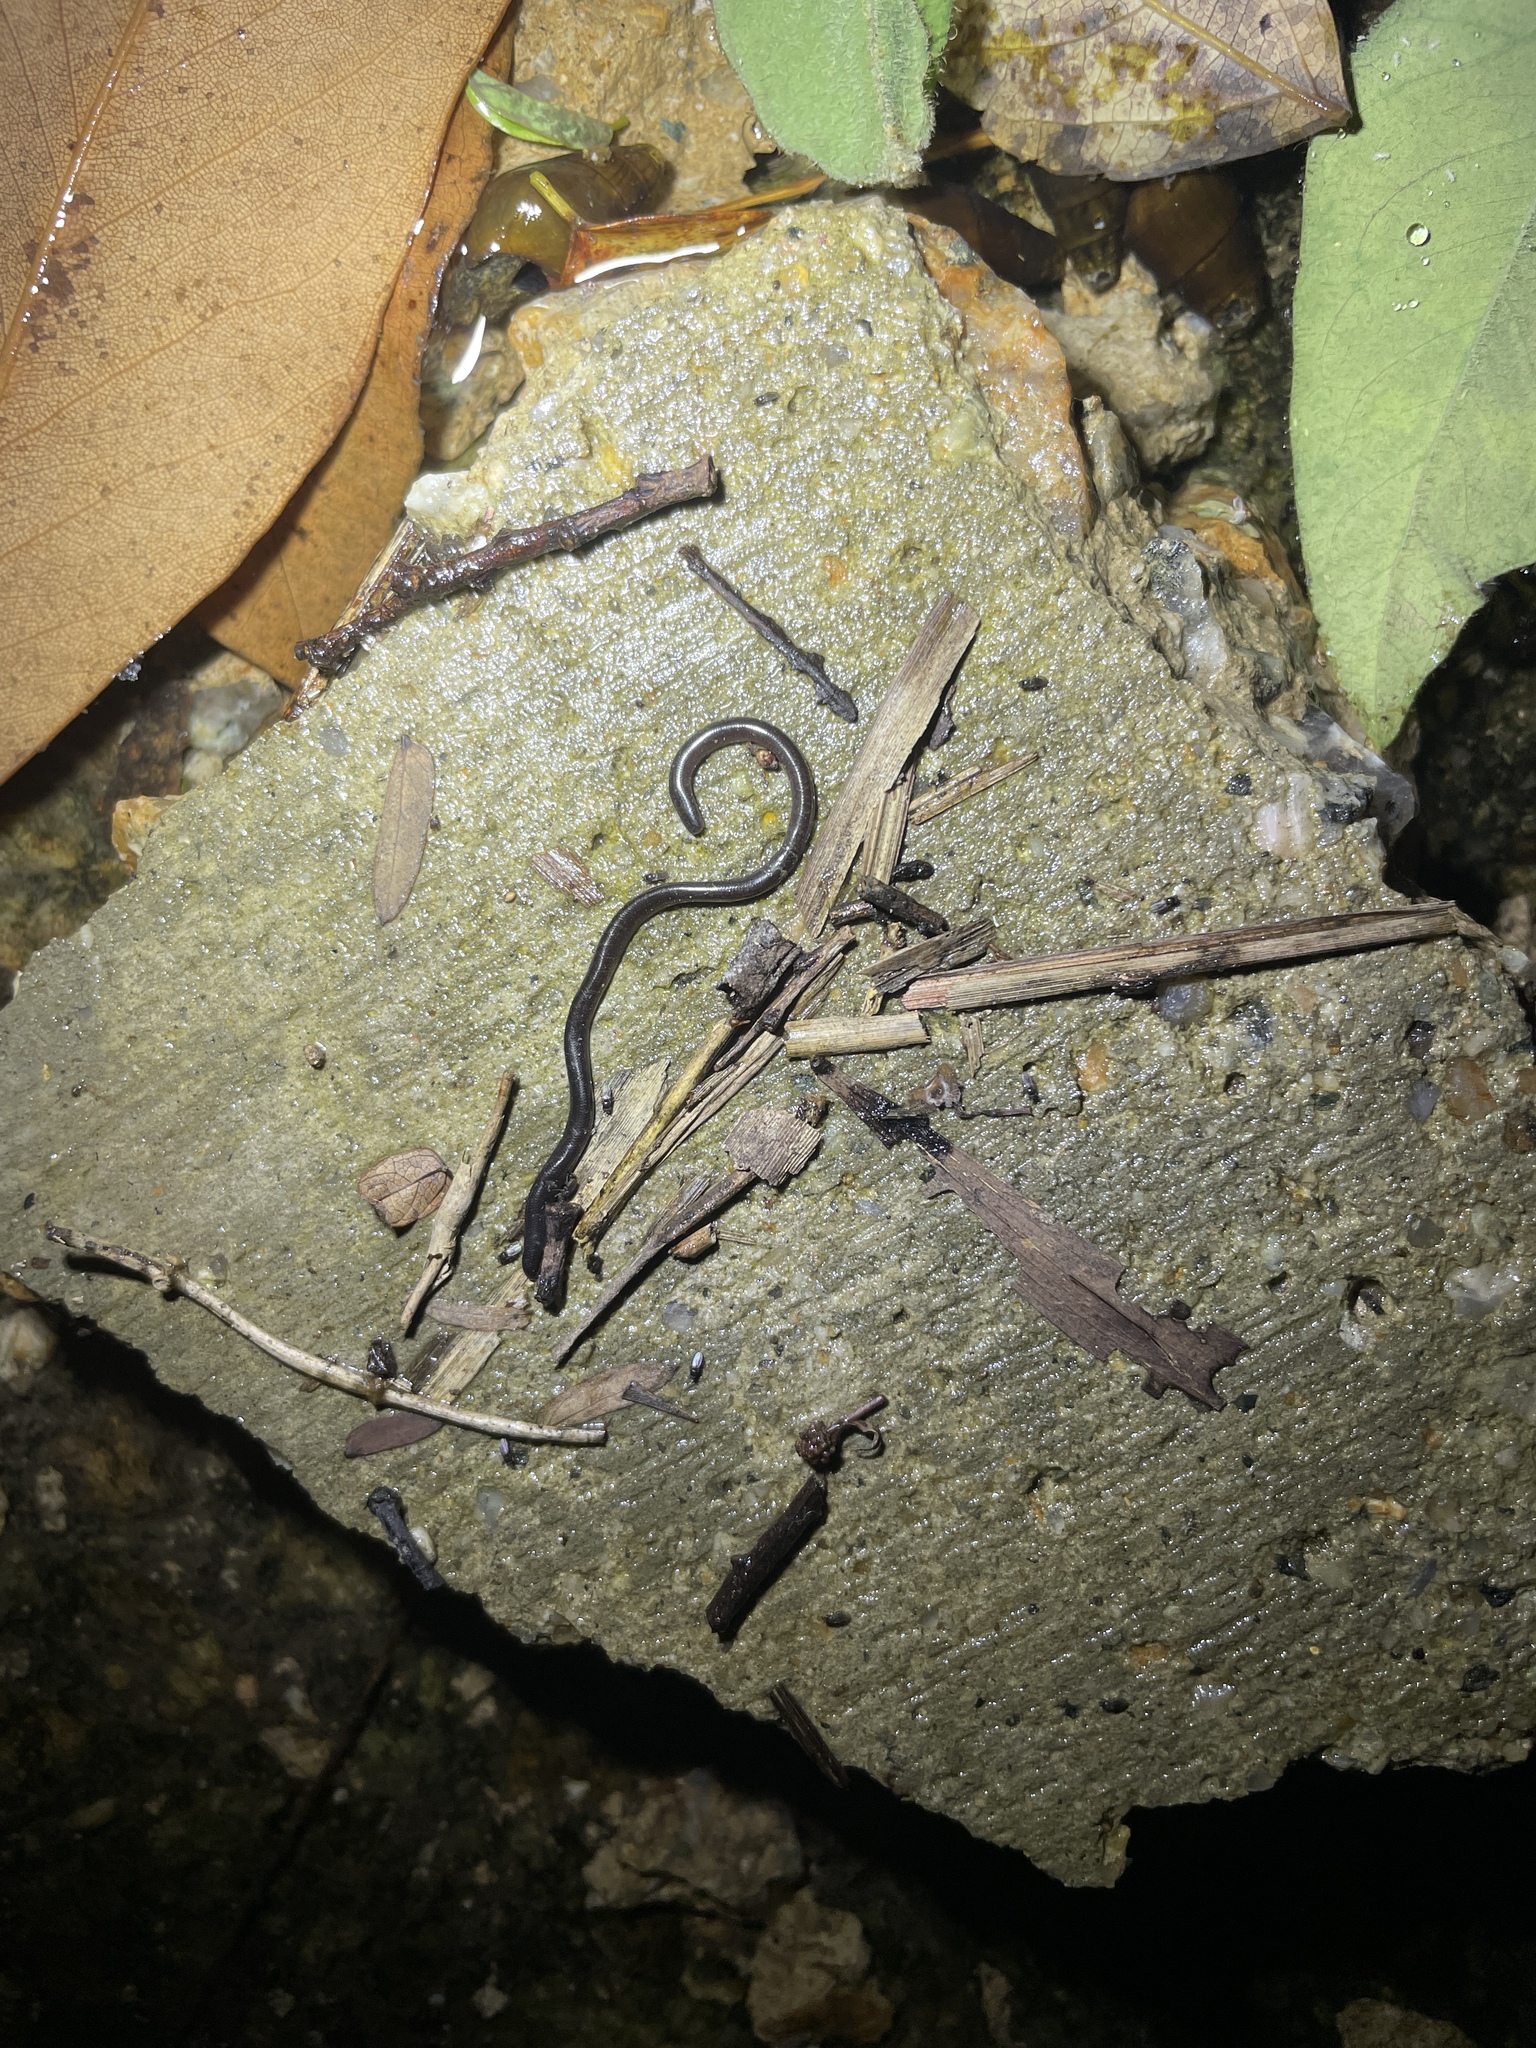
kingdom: Animalia
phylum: Chordata
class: Squamata
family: Typhlopidae
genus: Indotyphlops
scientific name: Indotyphlops braminus
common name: Brahminy blindsnake
